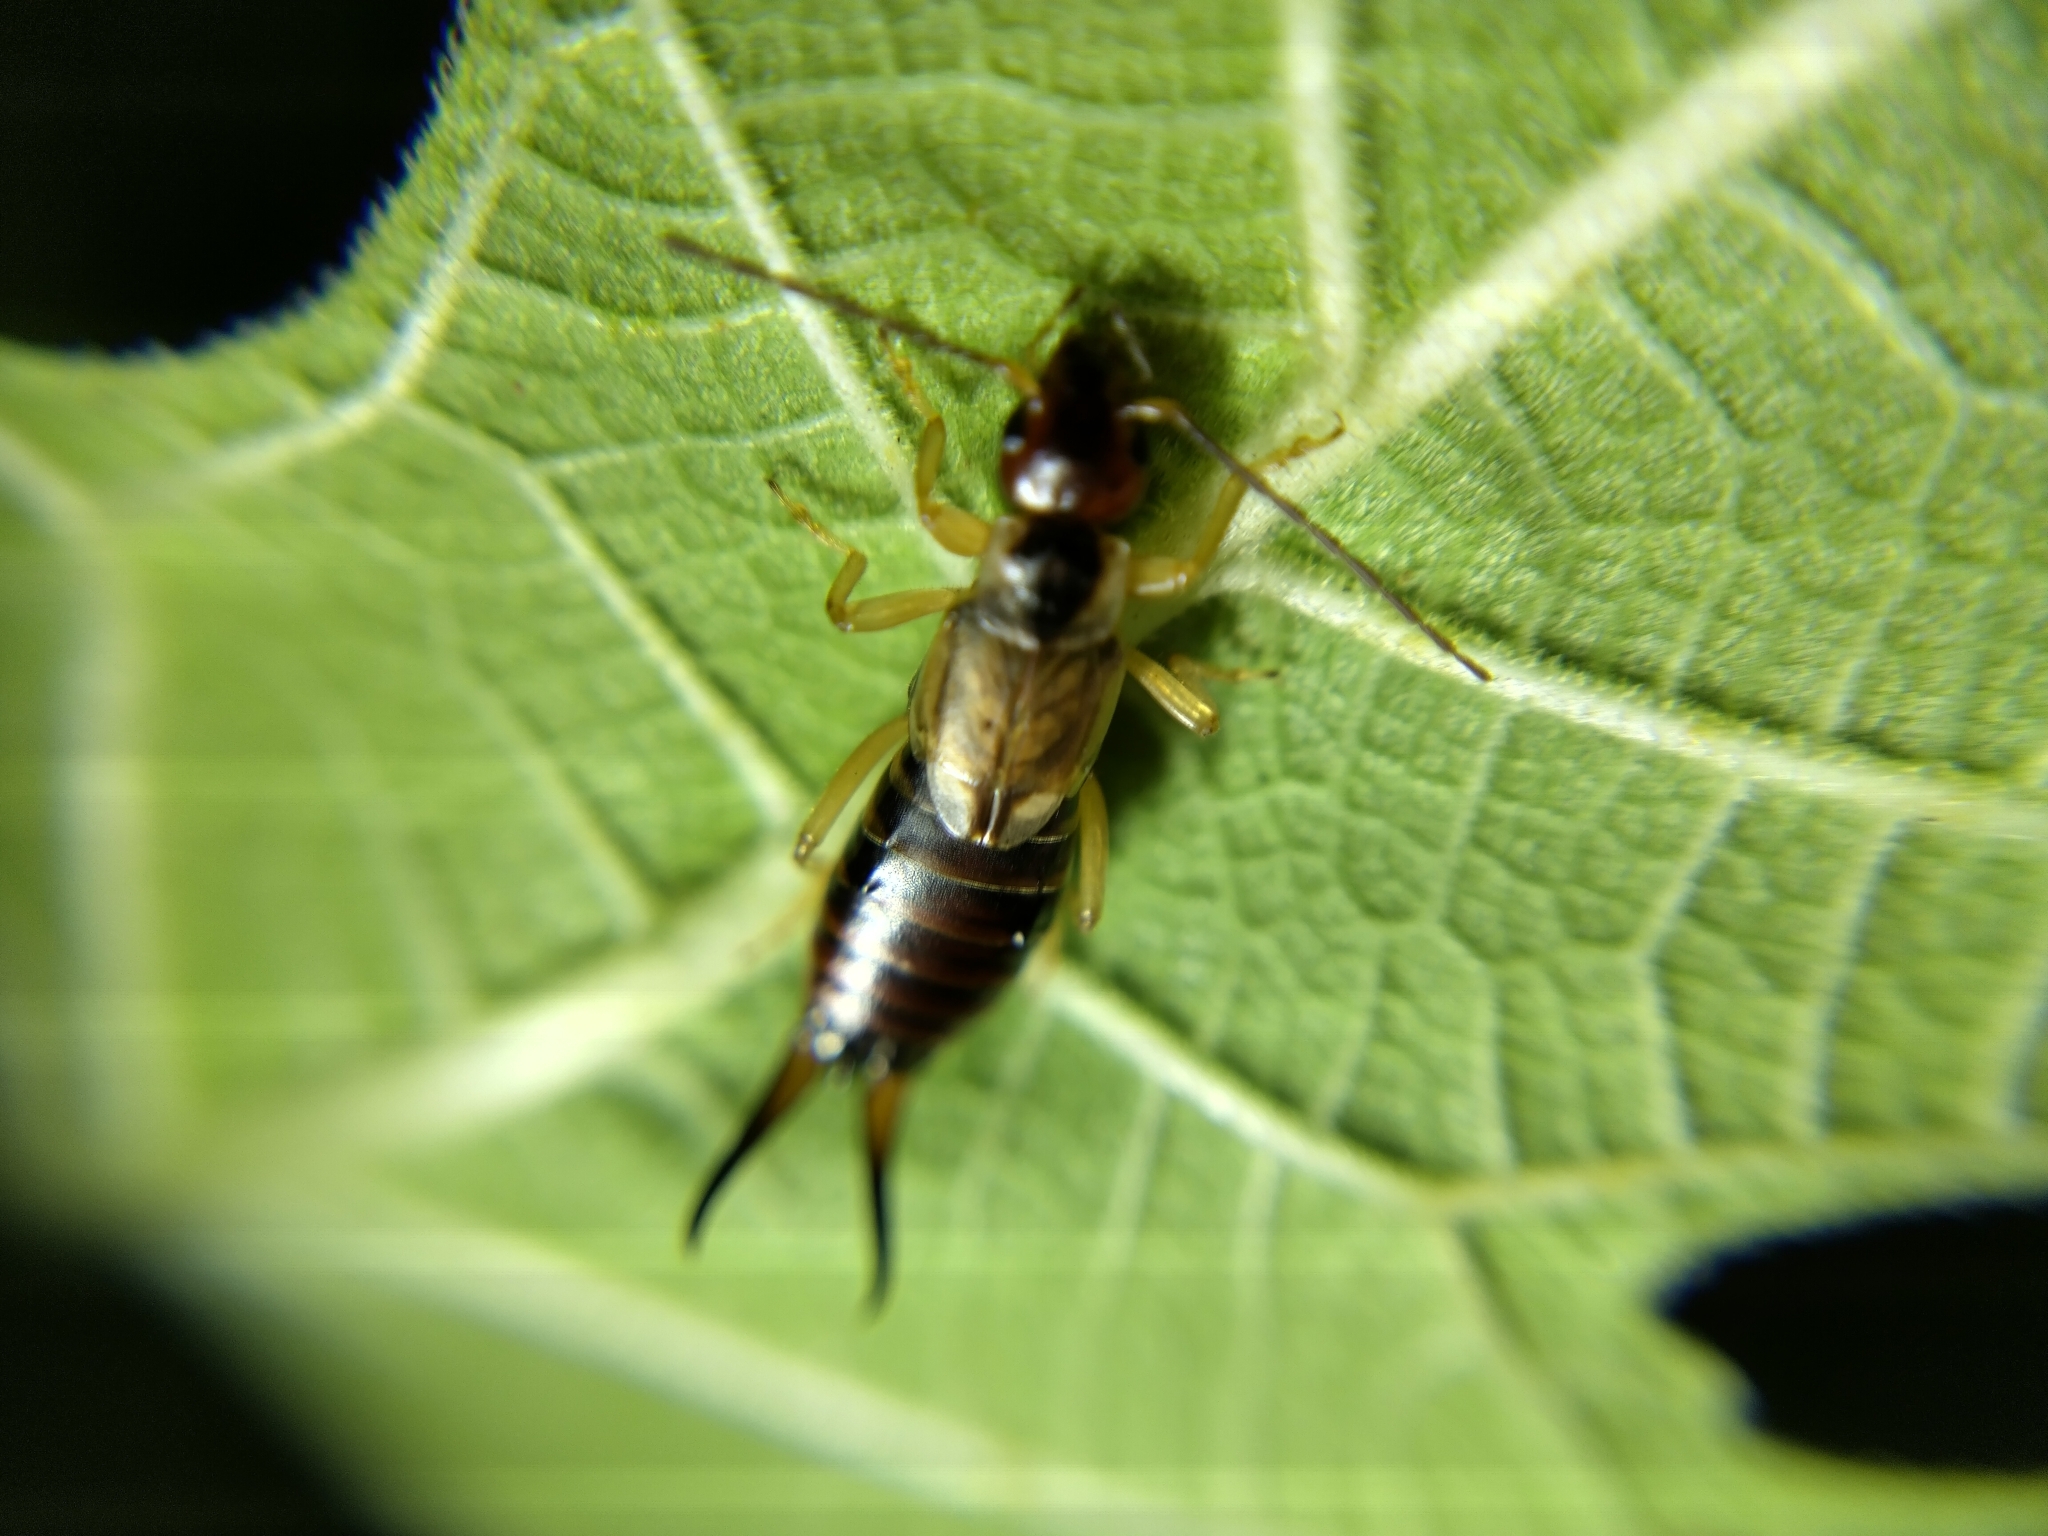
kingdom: Animalia
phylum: Arthropoda
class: Insecta
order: Dermaptera
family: Forficulidae
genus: Forficula
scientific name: Forficula dentata
